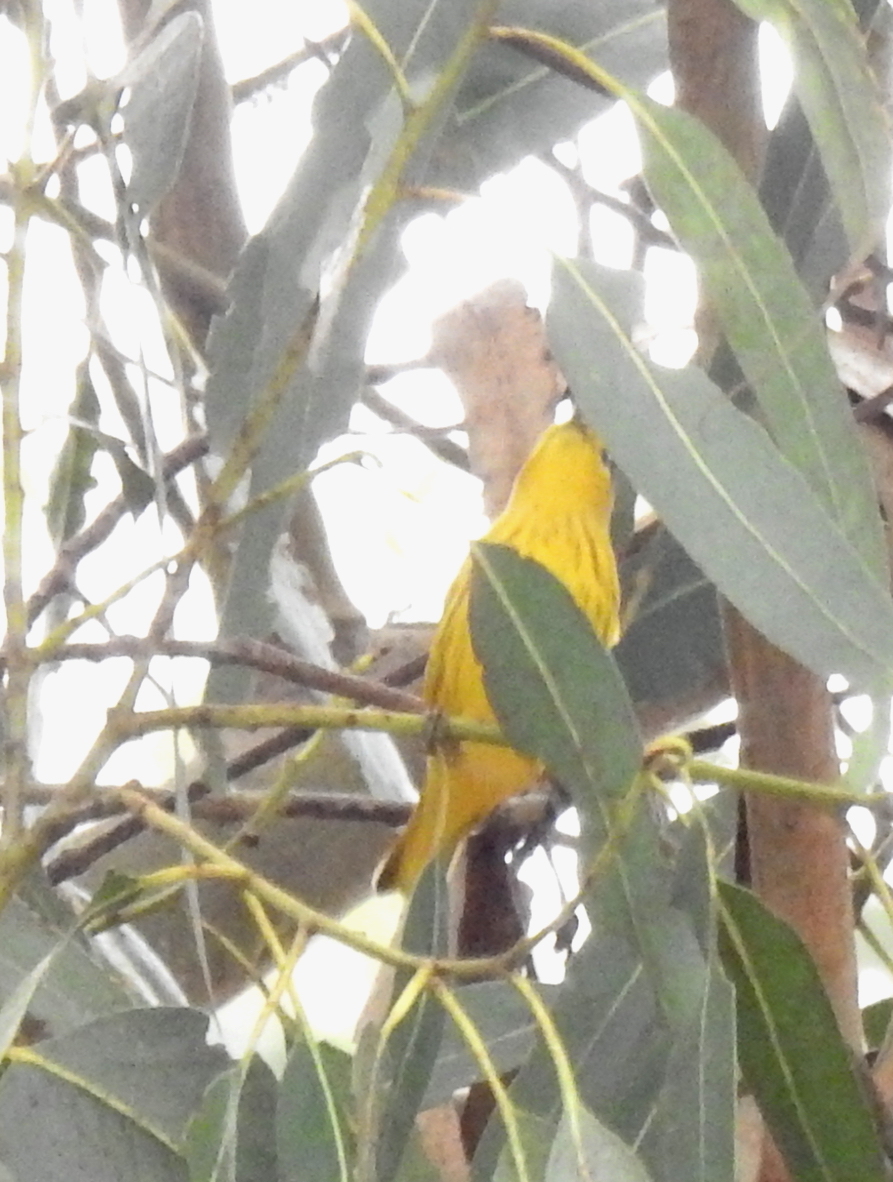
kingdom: Animalia
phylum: Chordata
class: Aves
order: Passeriformes
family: Parulidae
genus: Setophaga
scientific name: Setophaga petechia
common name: Yellow warbler
